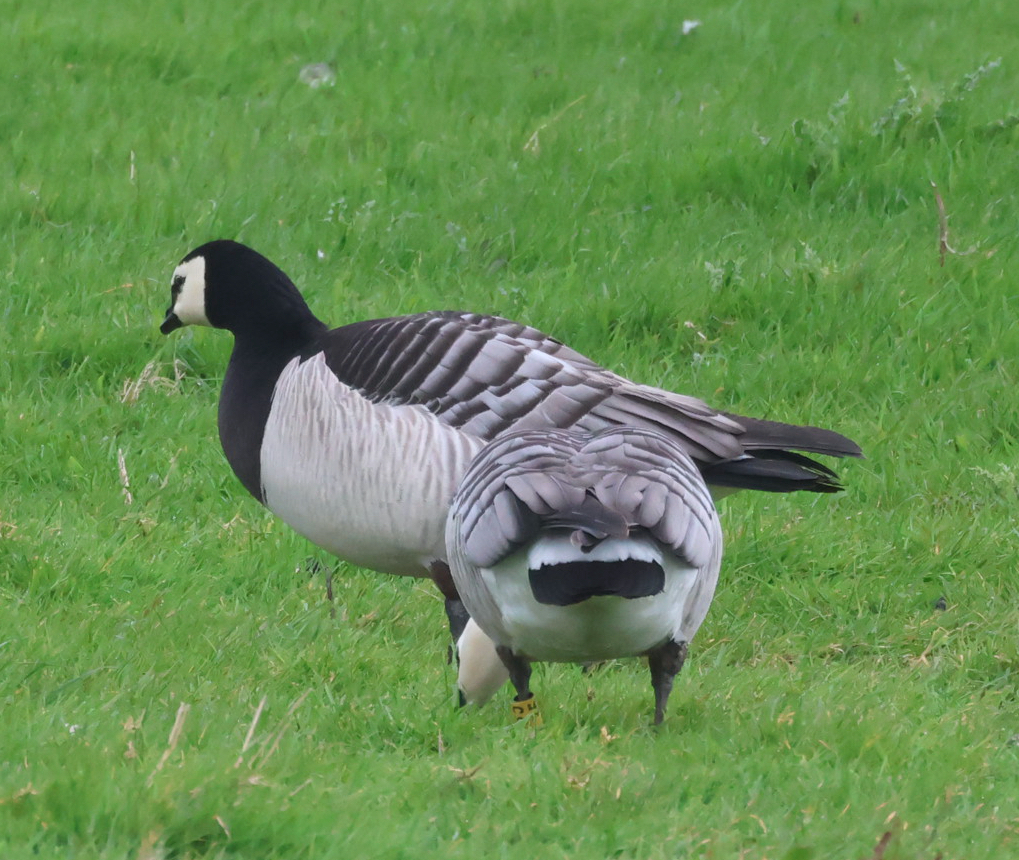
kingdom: Animalia
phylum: Chordata
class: Aves
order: Anseriformes
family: Anatidae
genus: Branta
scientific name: Branta leucopsis
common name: Barnacle goose
